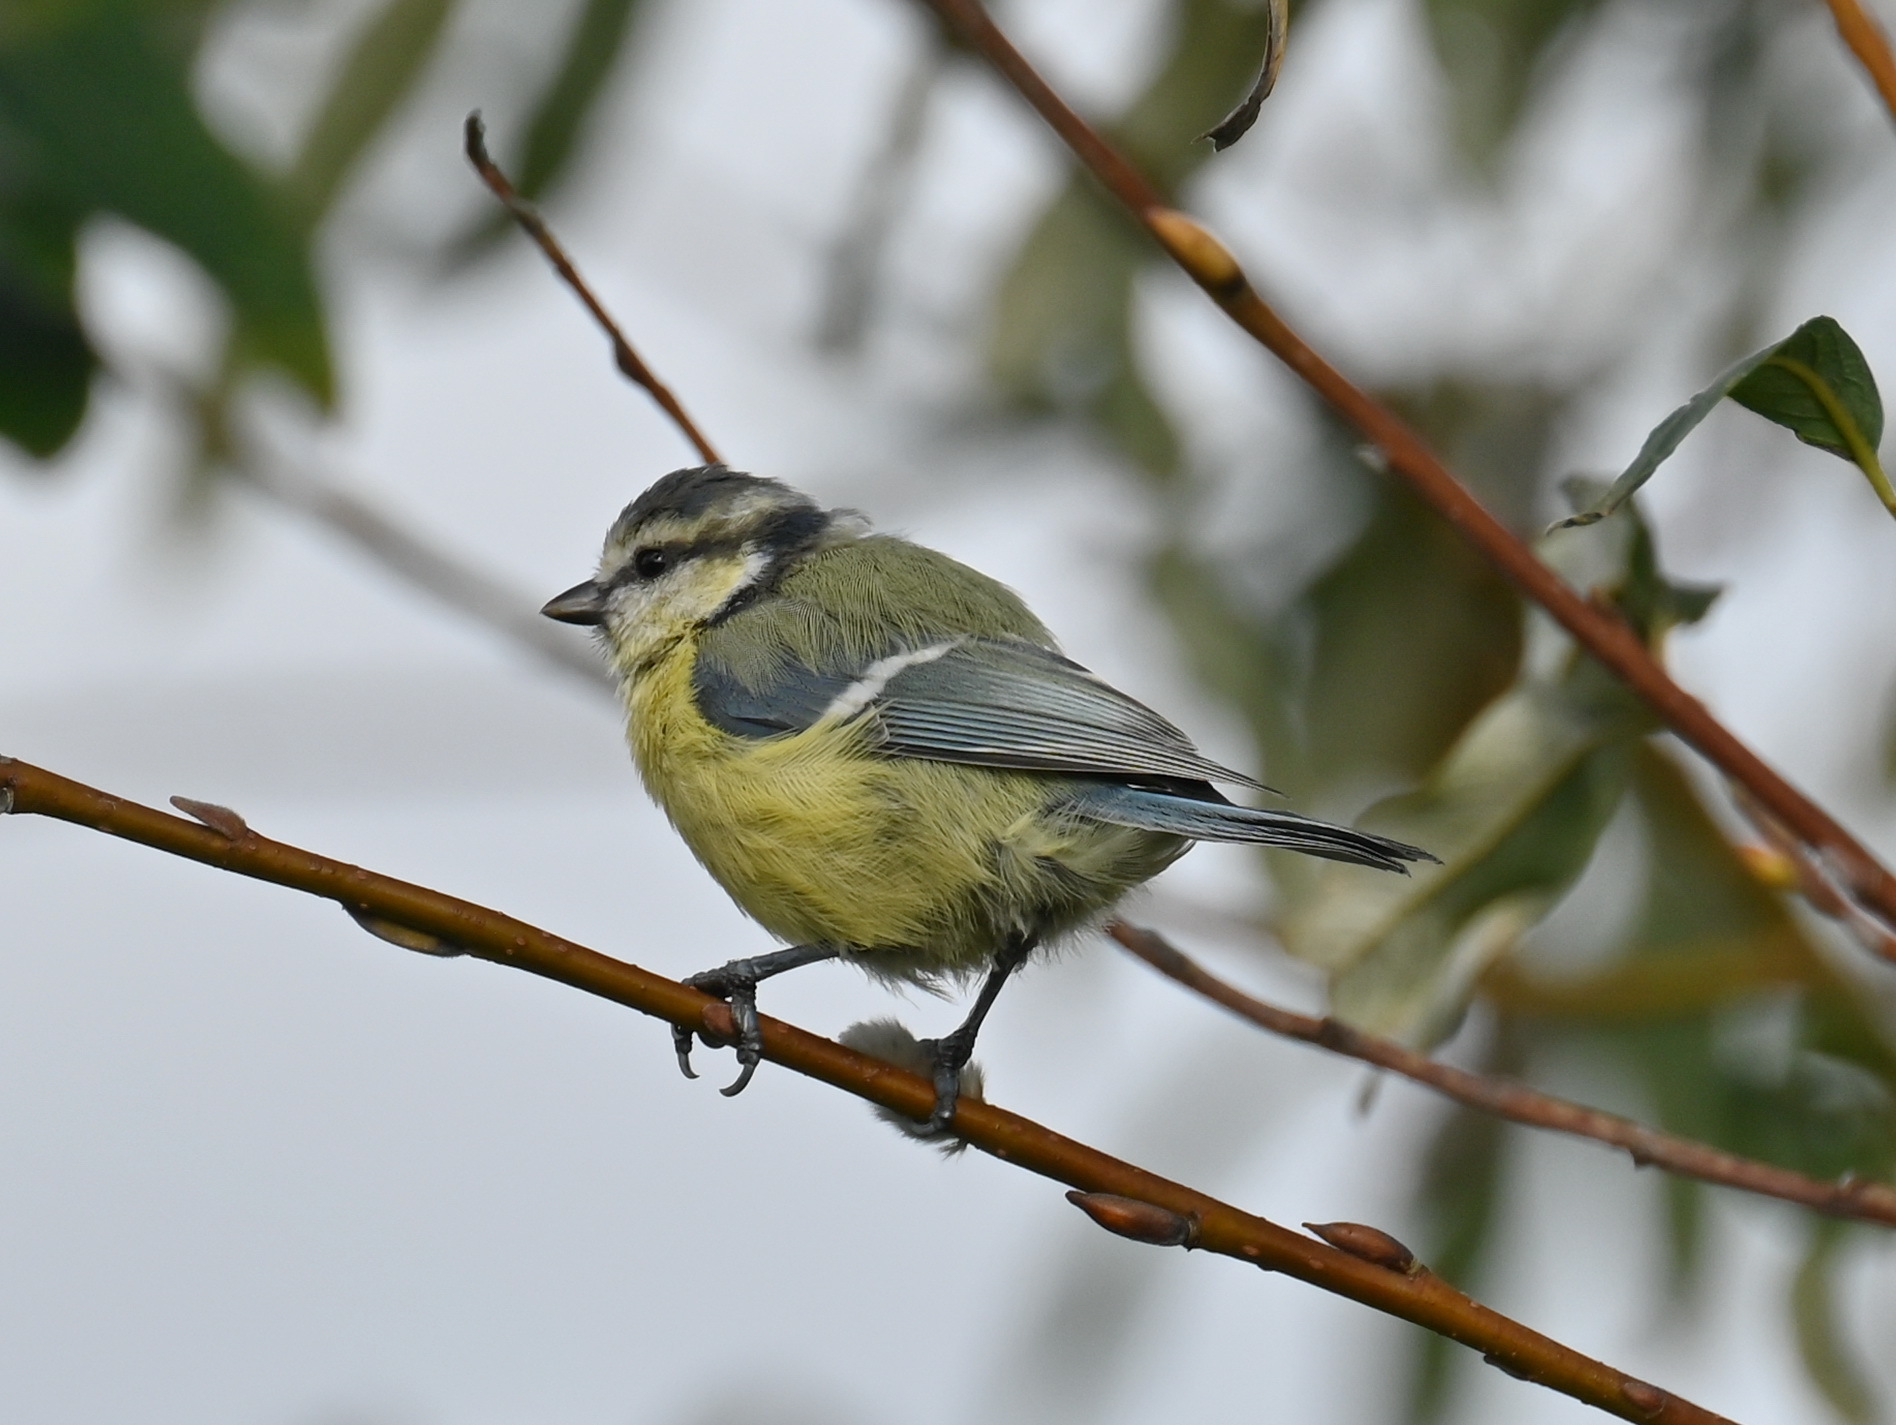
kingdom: Animalia
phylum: Chordata
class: Aves
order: Passeriformes
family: Paridae
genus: Cyanistes
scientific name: Cyanistes caeruleus
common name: Eurasian blue tit
